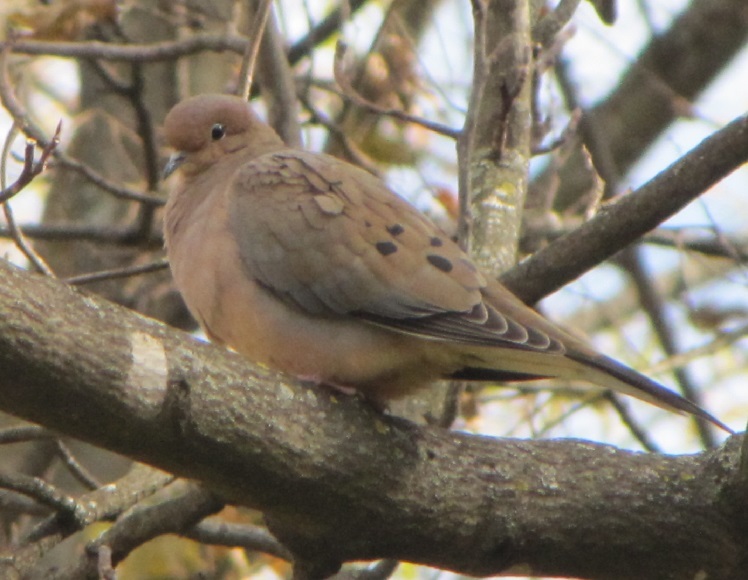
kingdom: Animalia
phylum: Chordata
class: Aves
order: Columbiformes
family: Columbidae
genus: Zenaida
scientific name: Zenaida macroura
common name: Mourning dove
